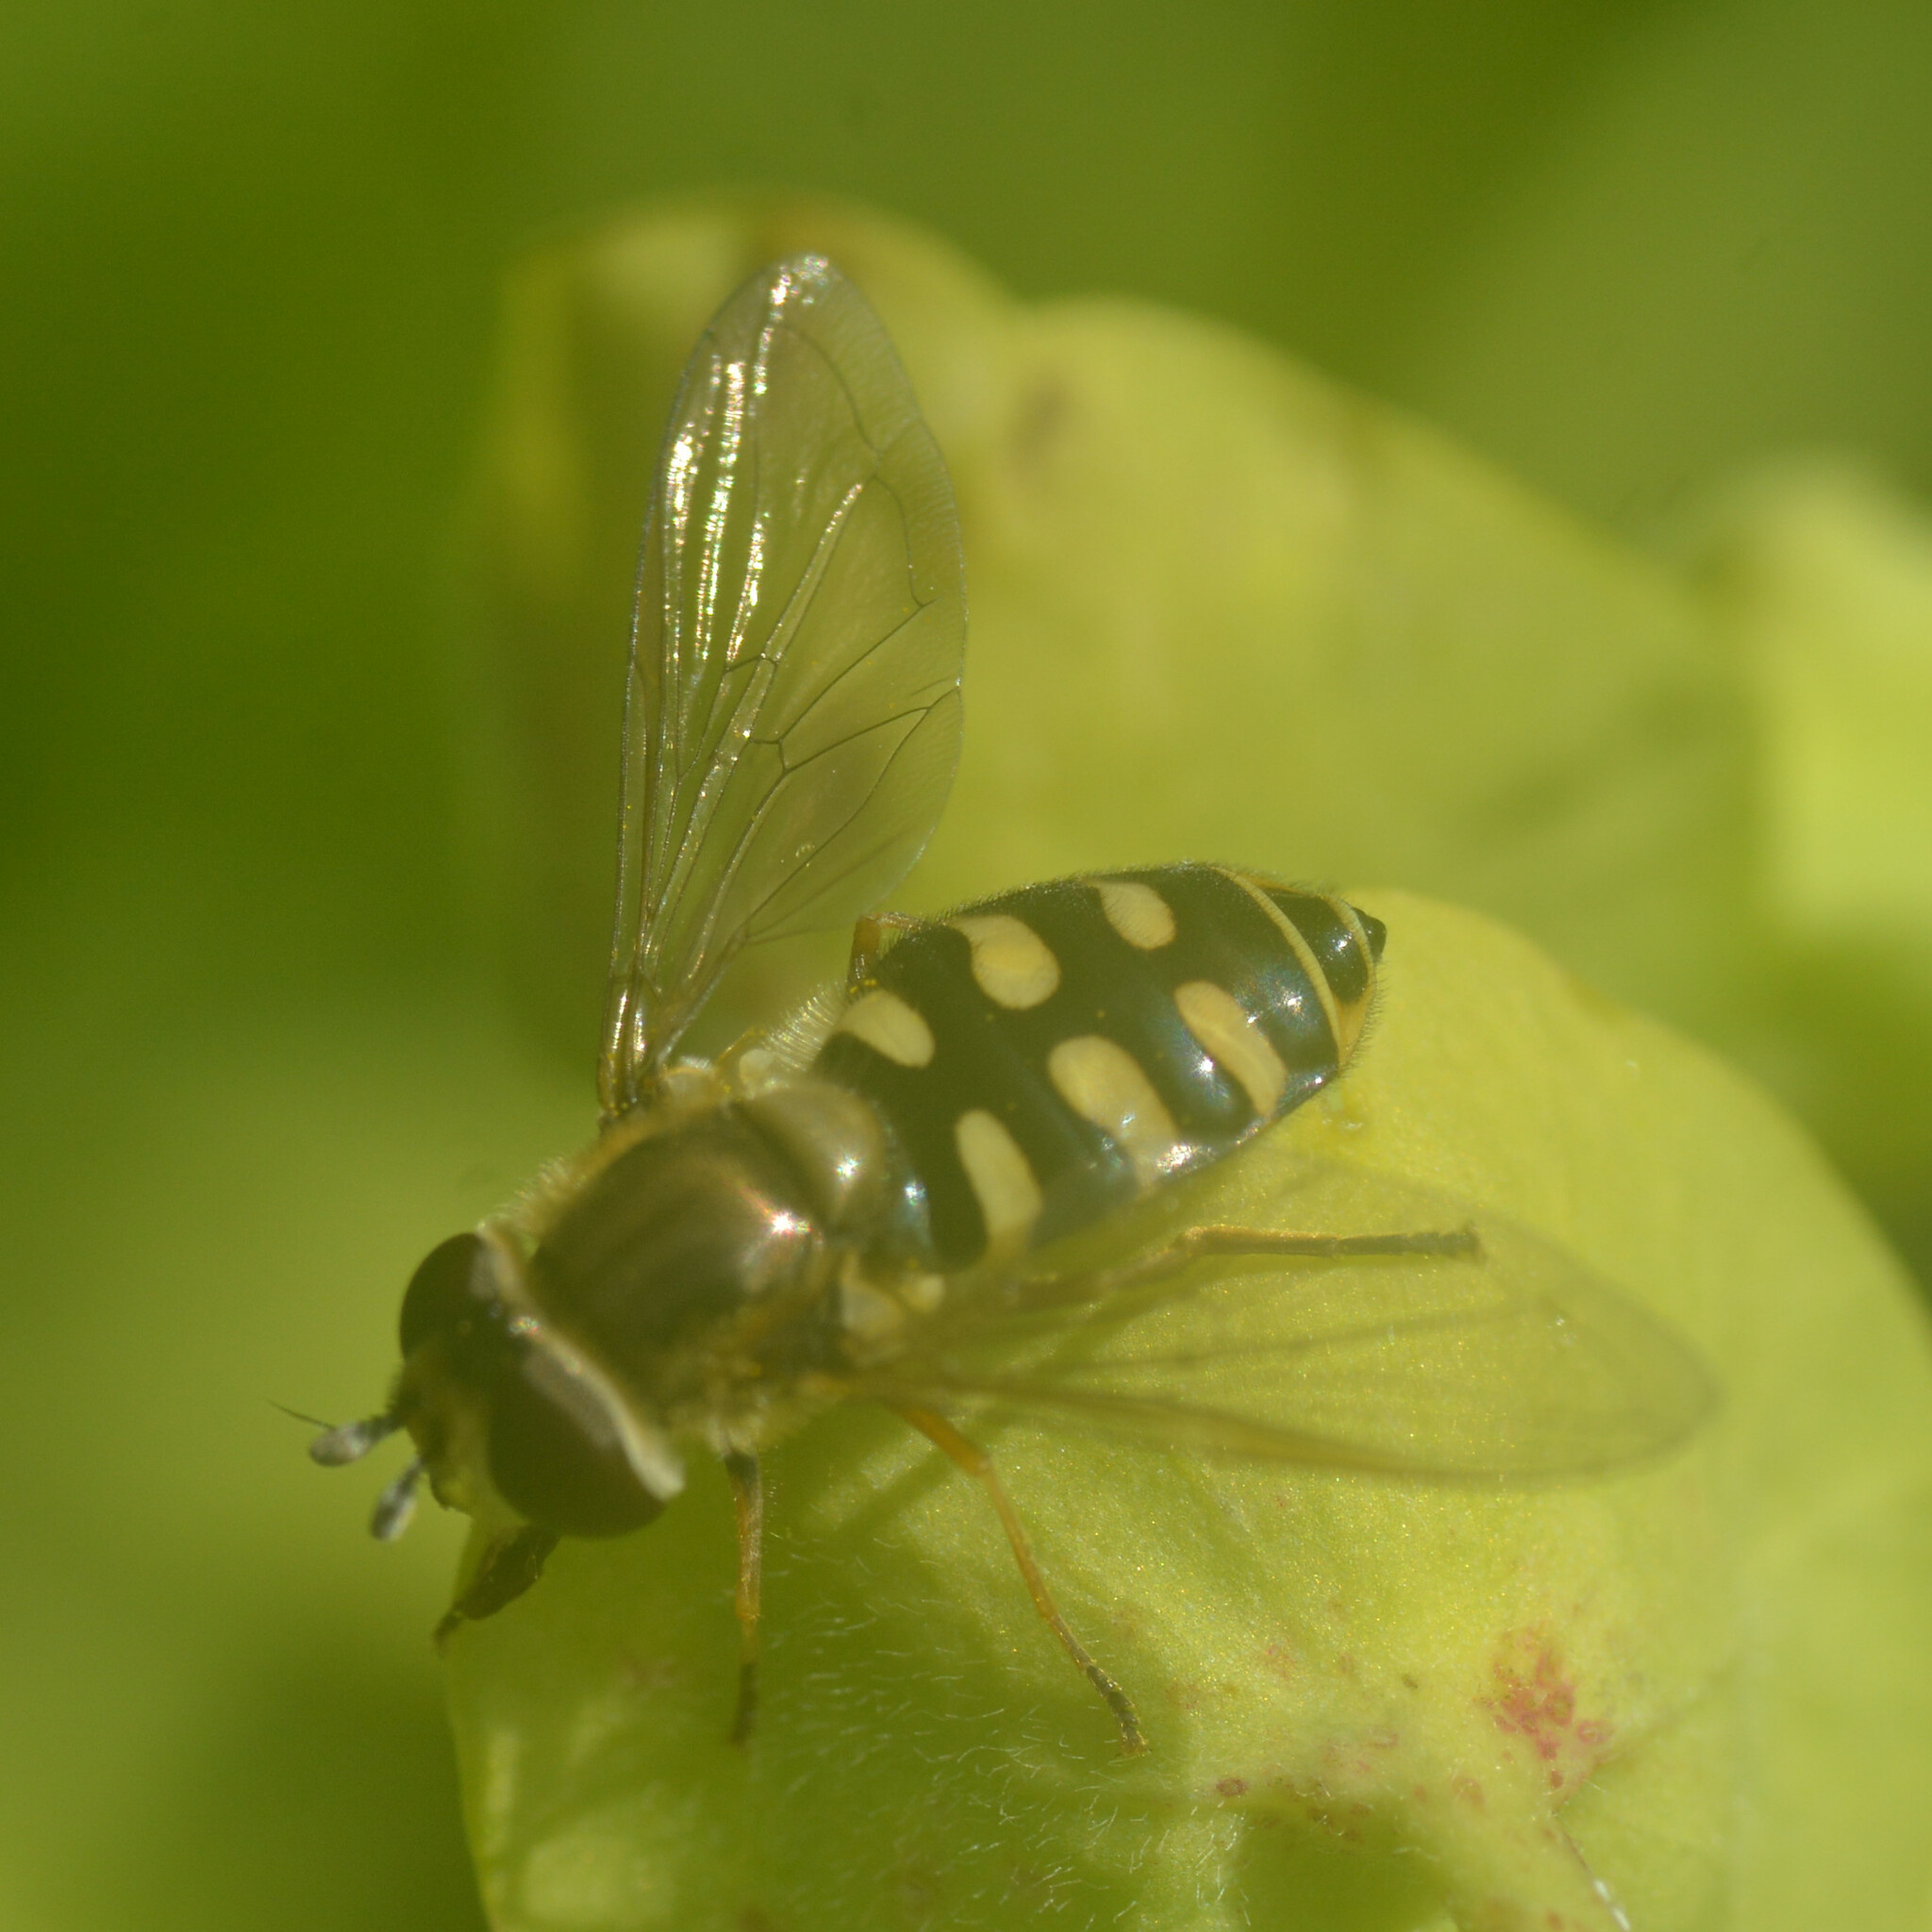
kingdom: Animalia
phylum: Arthropoda
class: Insecta
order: Diptera
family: Syrphidae
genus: Eupeodes
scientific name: Eupeodes corollae
